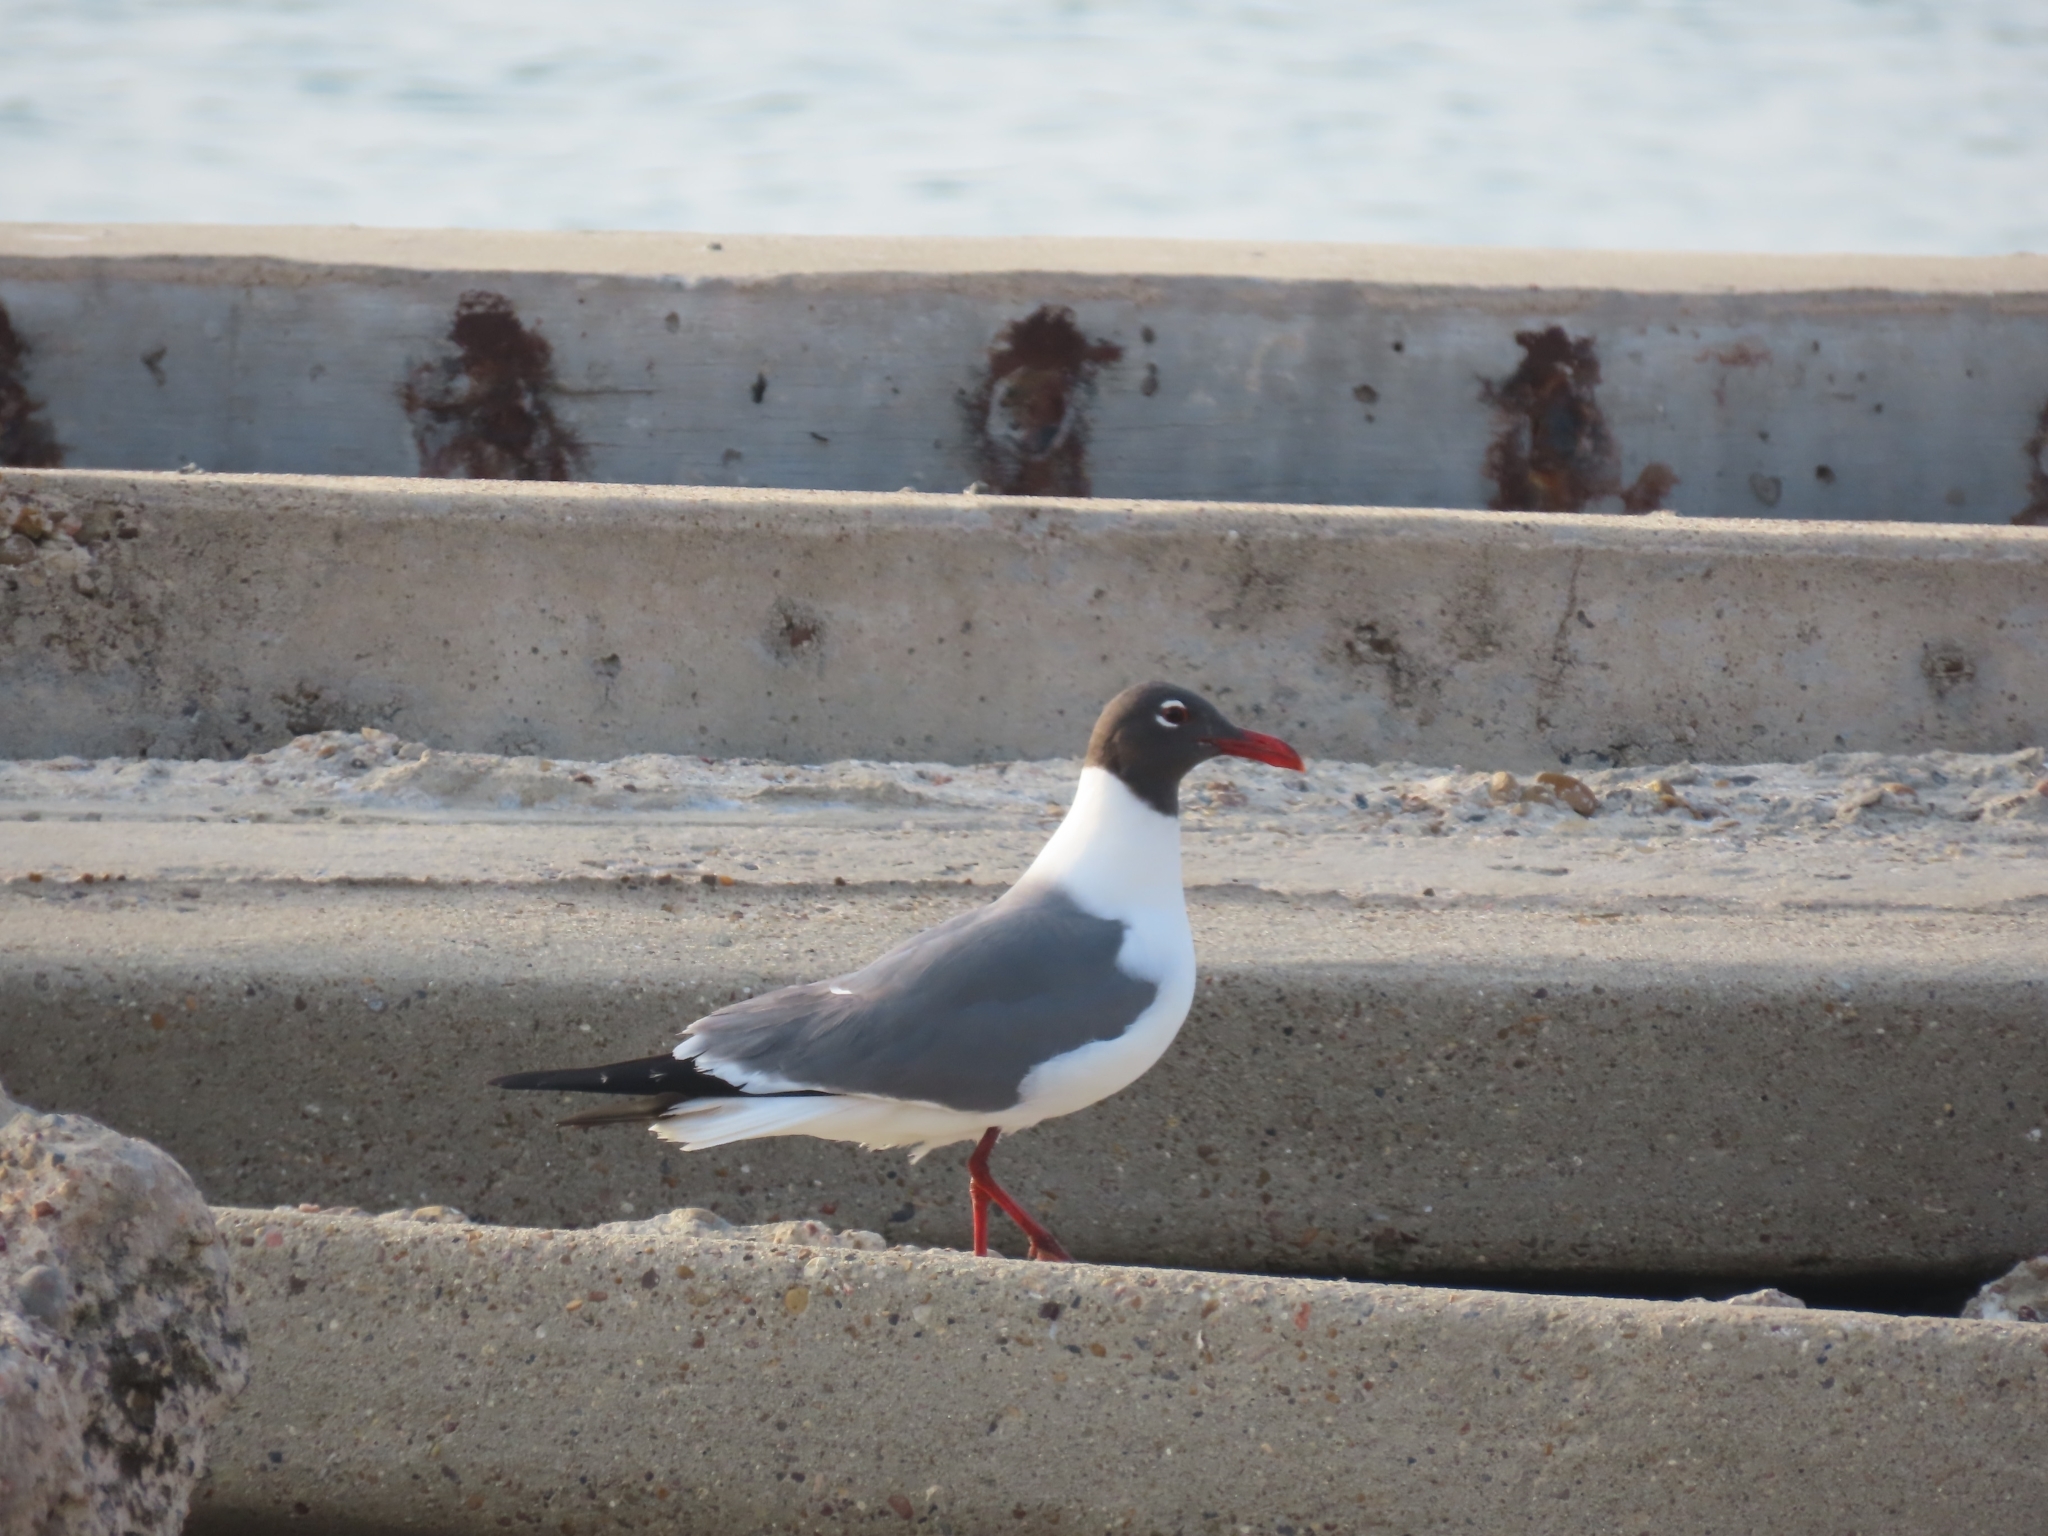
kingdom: Animalia
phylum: Chordata
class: Aves
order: Charadriiformes
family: Laridae
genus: Leucophaeus
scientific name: Leucophaeus atricilla
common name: Laughing gull
